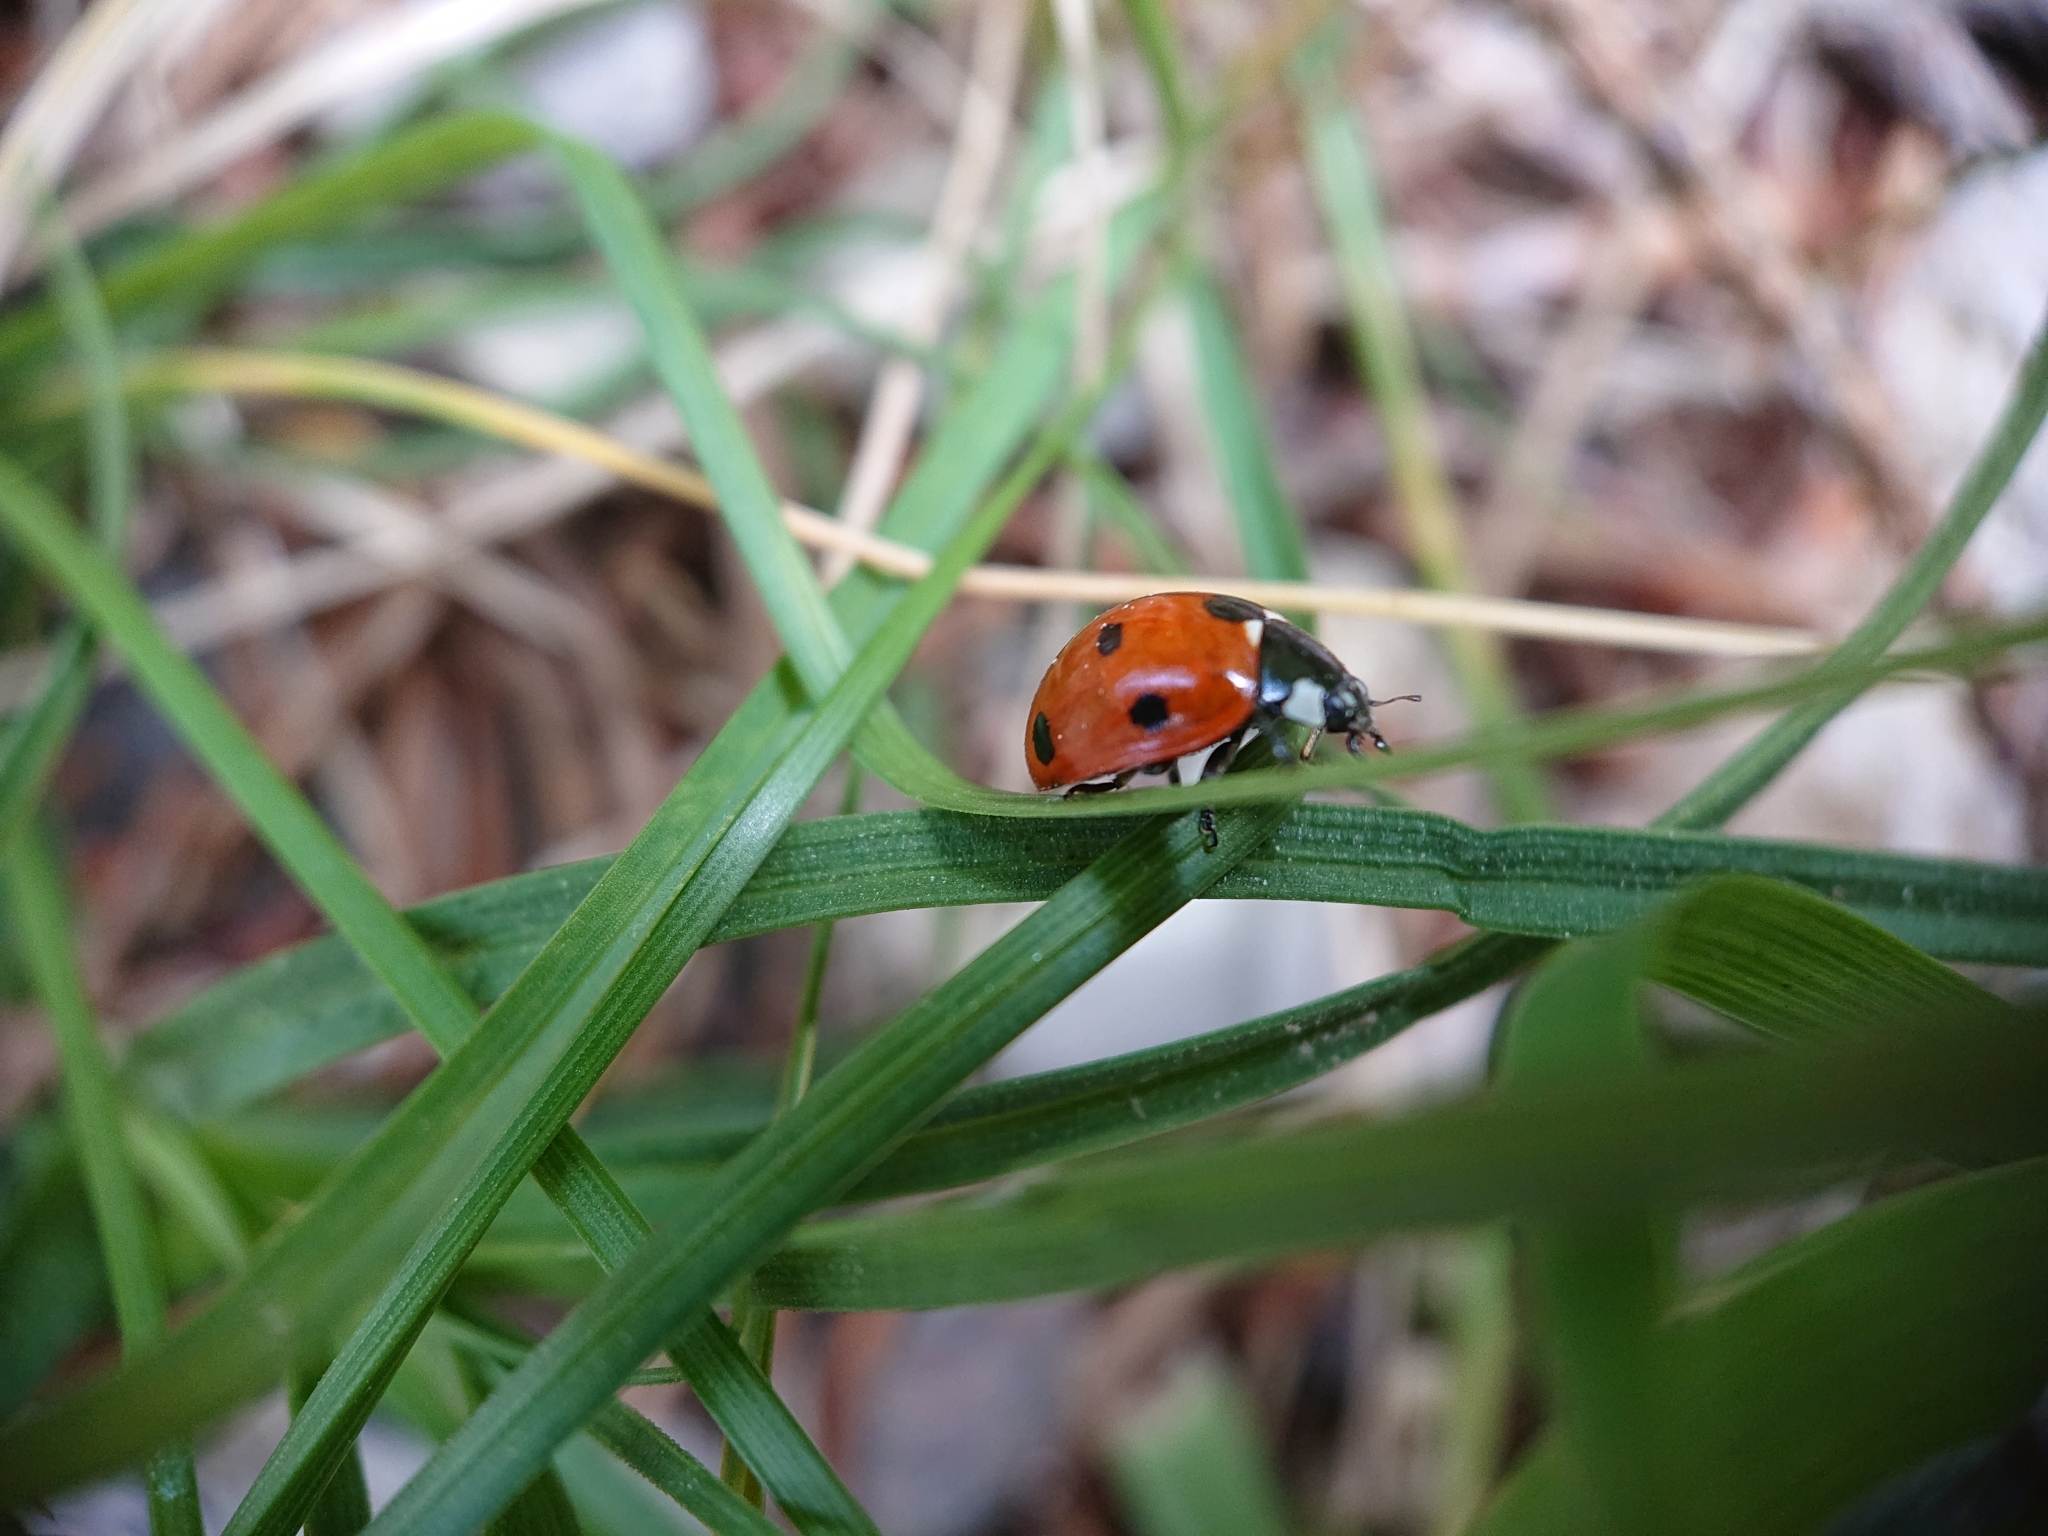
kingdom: Animalia
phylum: Arthropoda
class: Insecta
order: Coleoptera
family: Coccinellidae
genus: Coccinella
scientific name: Coccinella septempunctata
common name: Sevenspotted lady beetle
